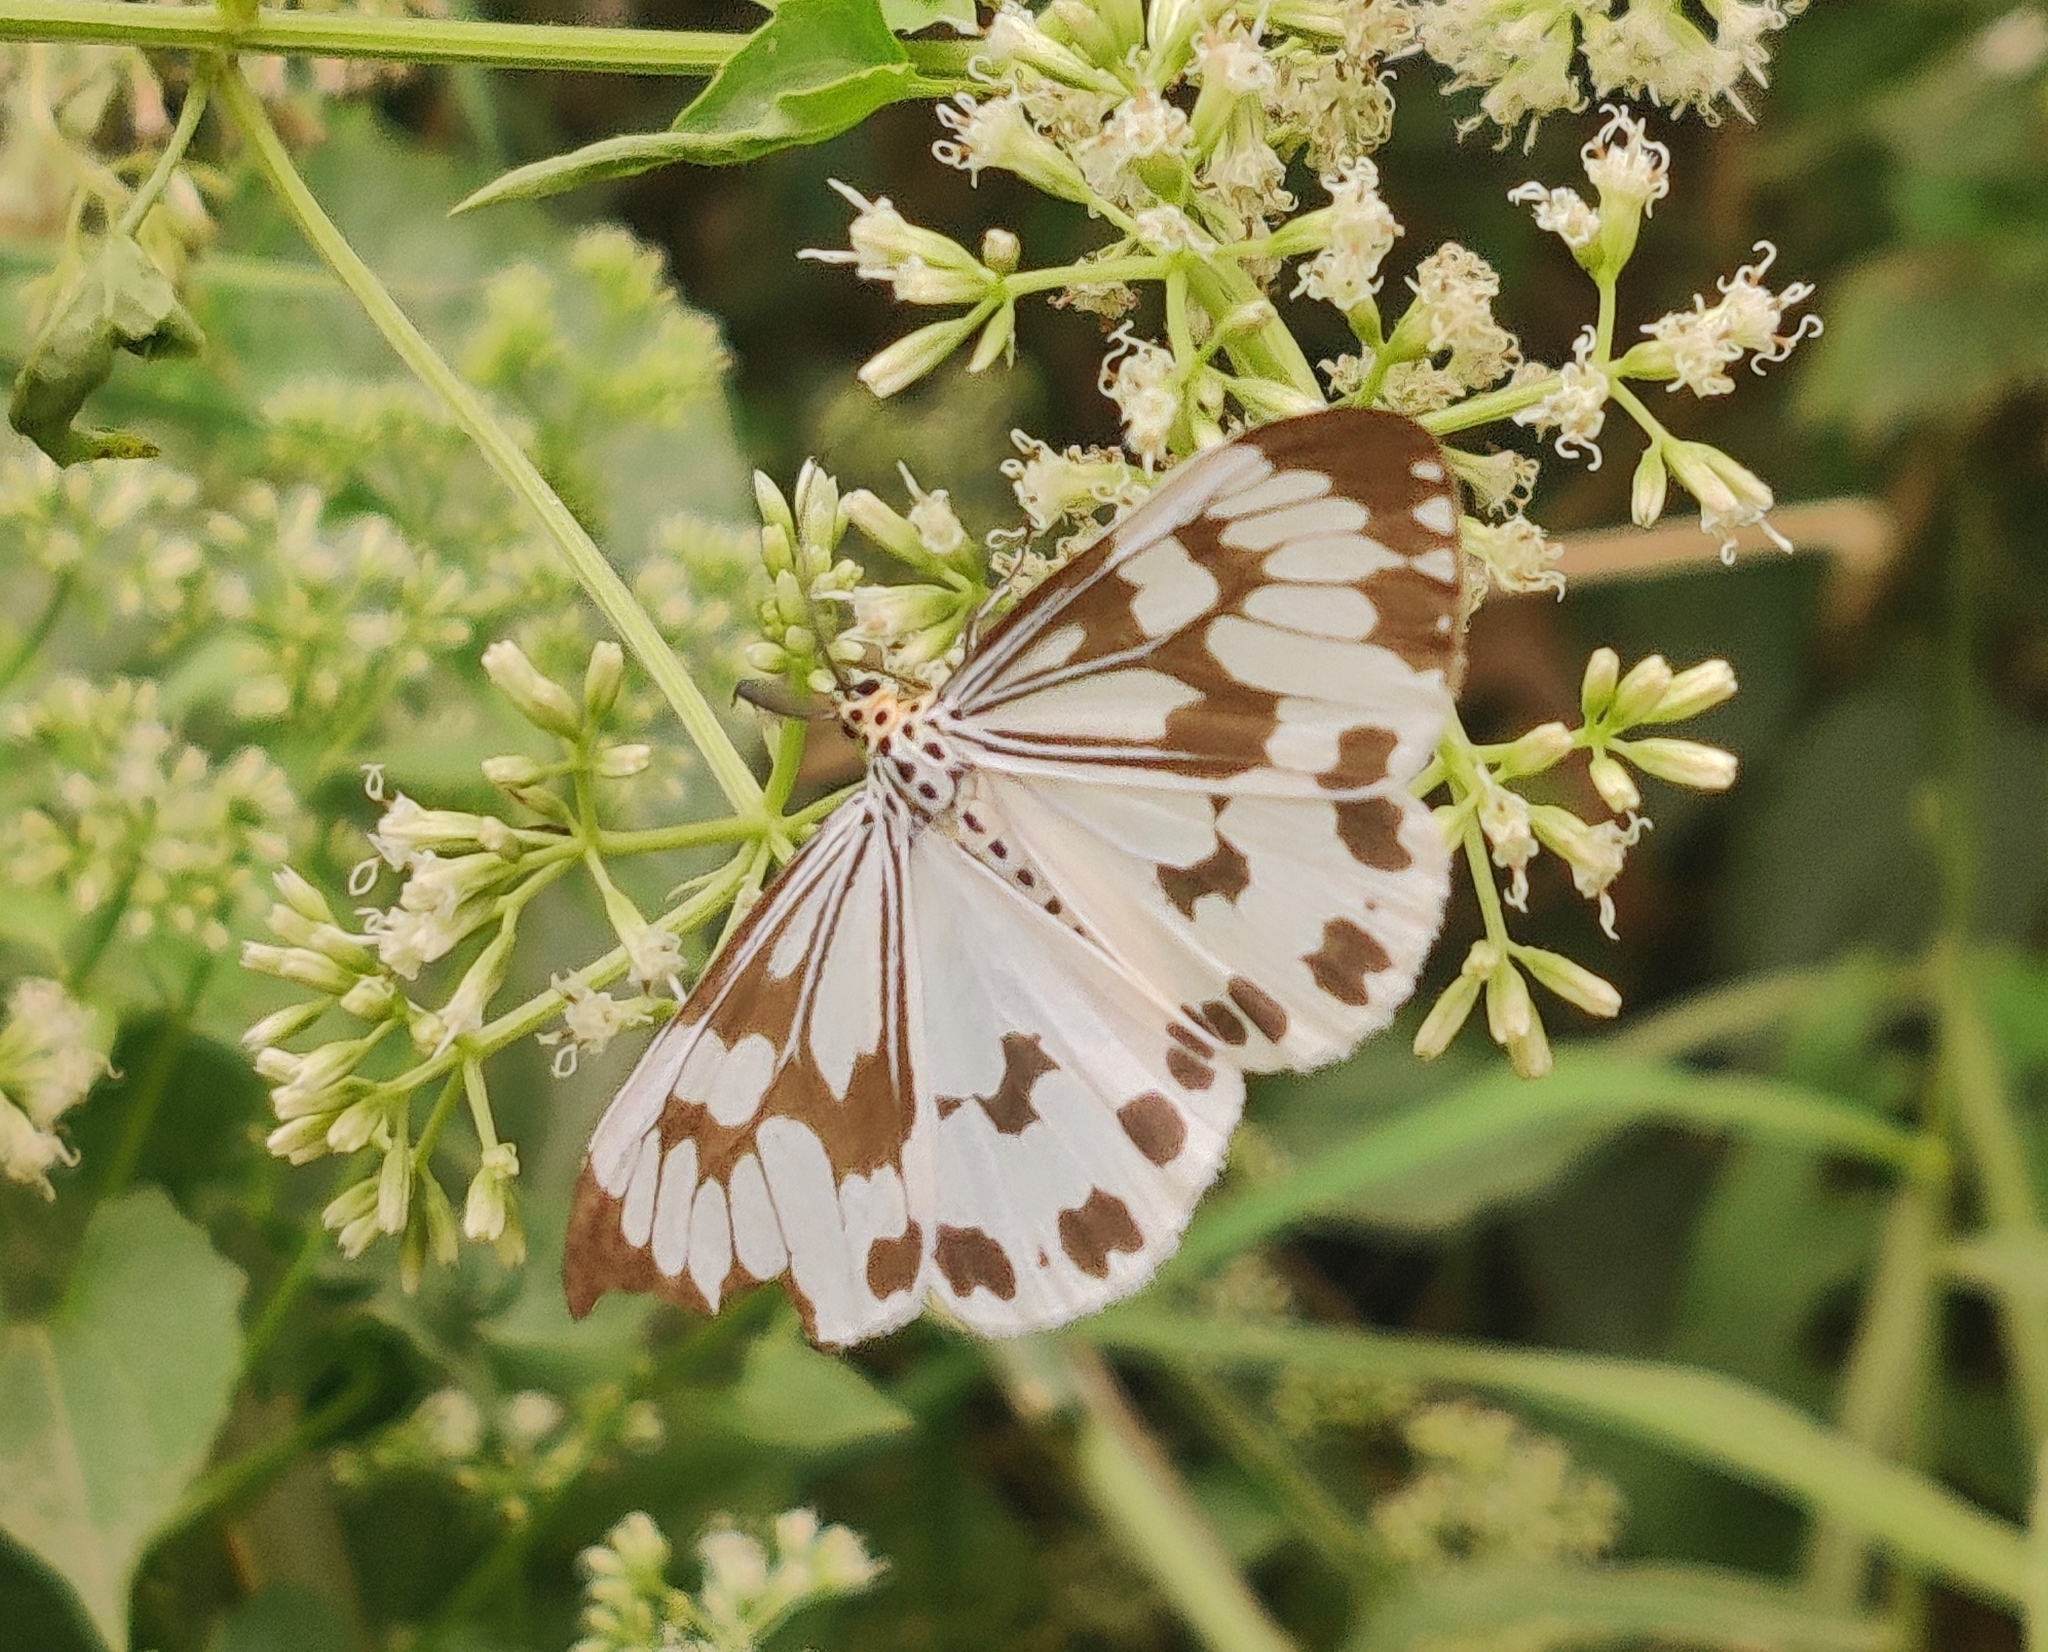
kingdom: Animalia
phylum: Arthropoda
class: Insecta
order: Lepidoptera
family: Erebidae
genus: Nyctemera
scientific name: Nyctemera adversata
